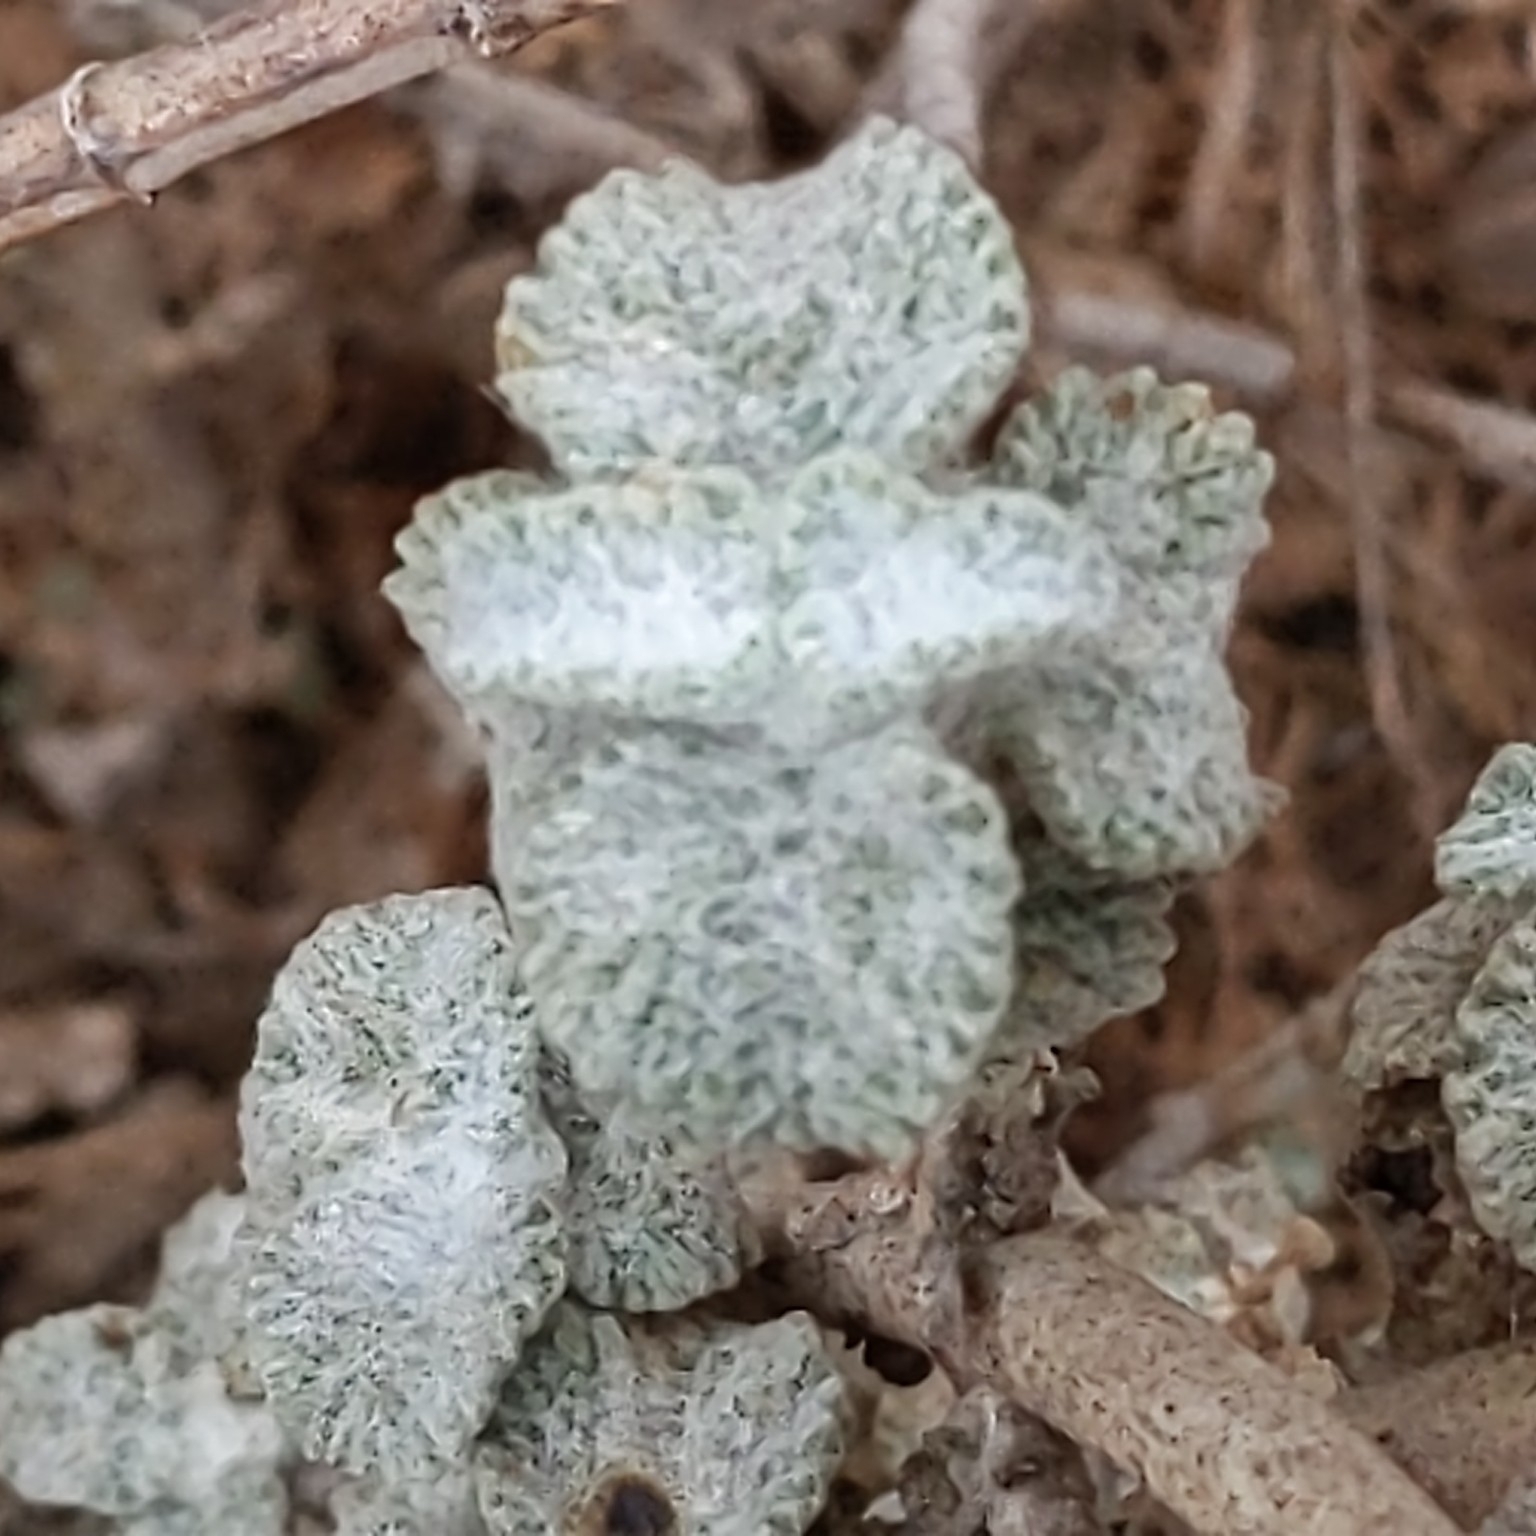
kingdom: Plantae
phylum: Tracheophyta
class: Magnoliopsida
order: Lamiales
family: Lamiaceae
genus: Marrubium
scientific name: Marrubium vulgare
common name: Horehound
